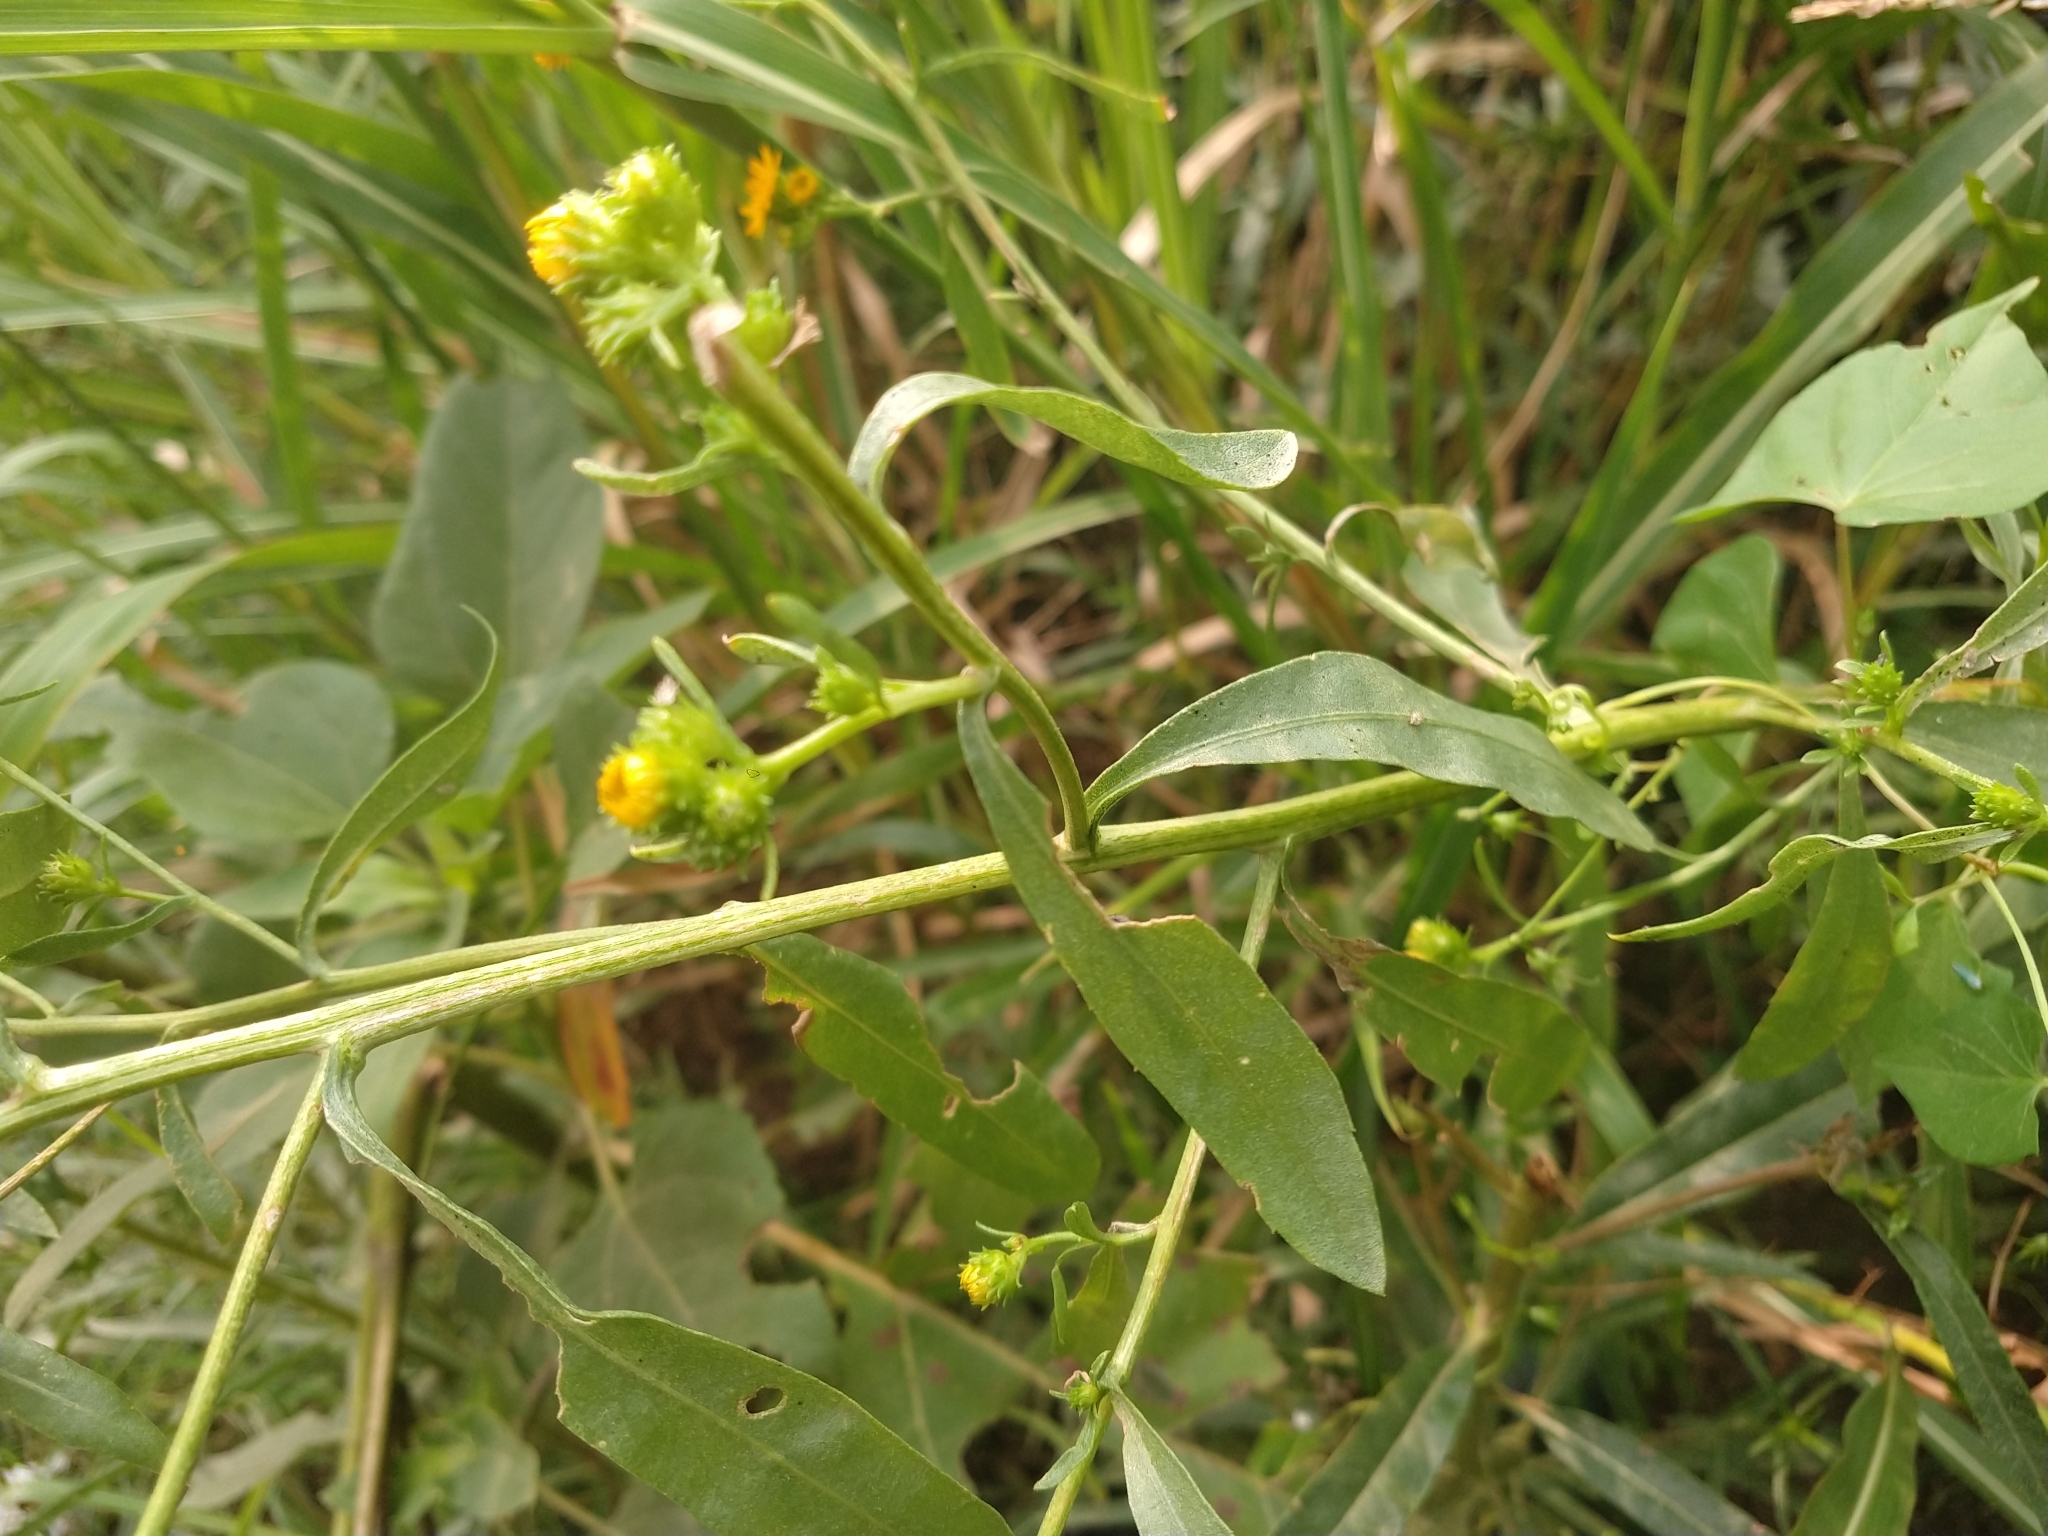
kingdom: Plantae
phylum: Tracheophyta
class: Magnoliopsida
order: Asterales
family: Asteraceae
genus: Xanthocephalum
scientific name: Xanthocephalum gymnospermoides
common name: San pedro matchweed
